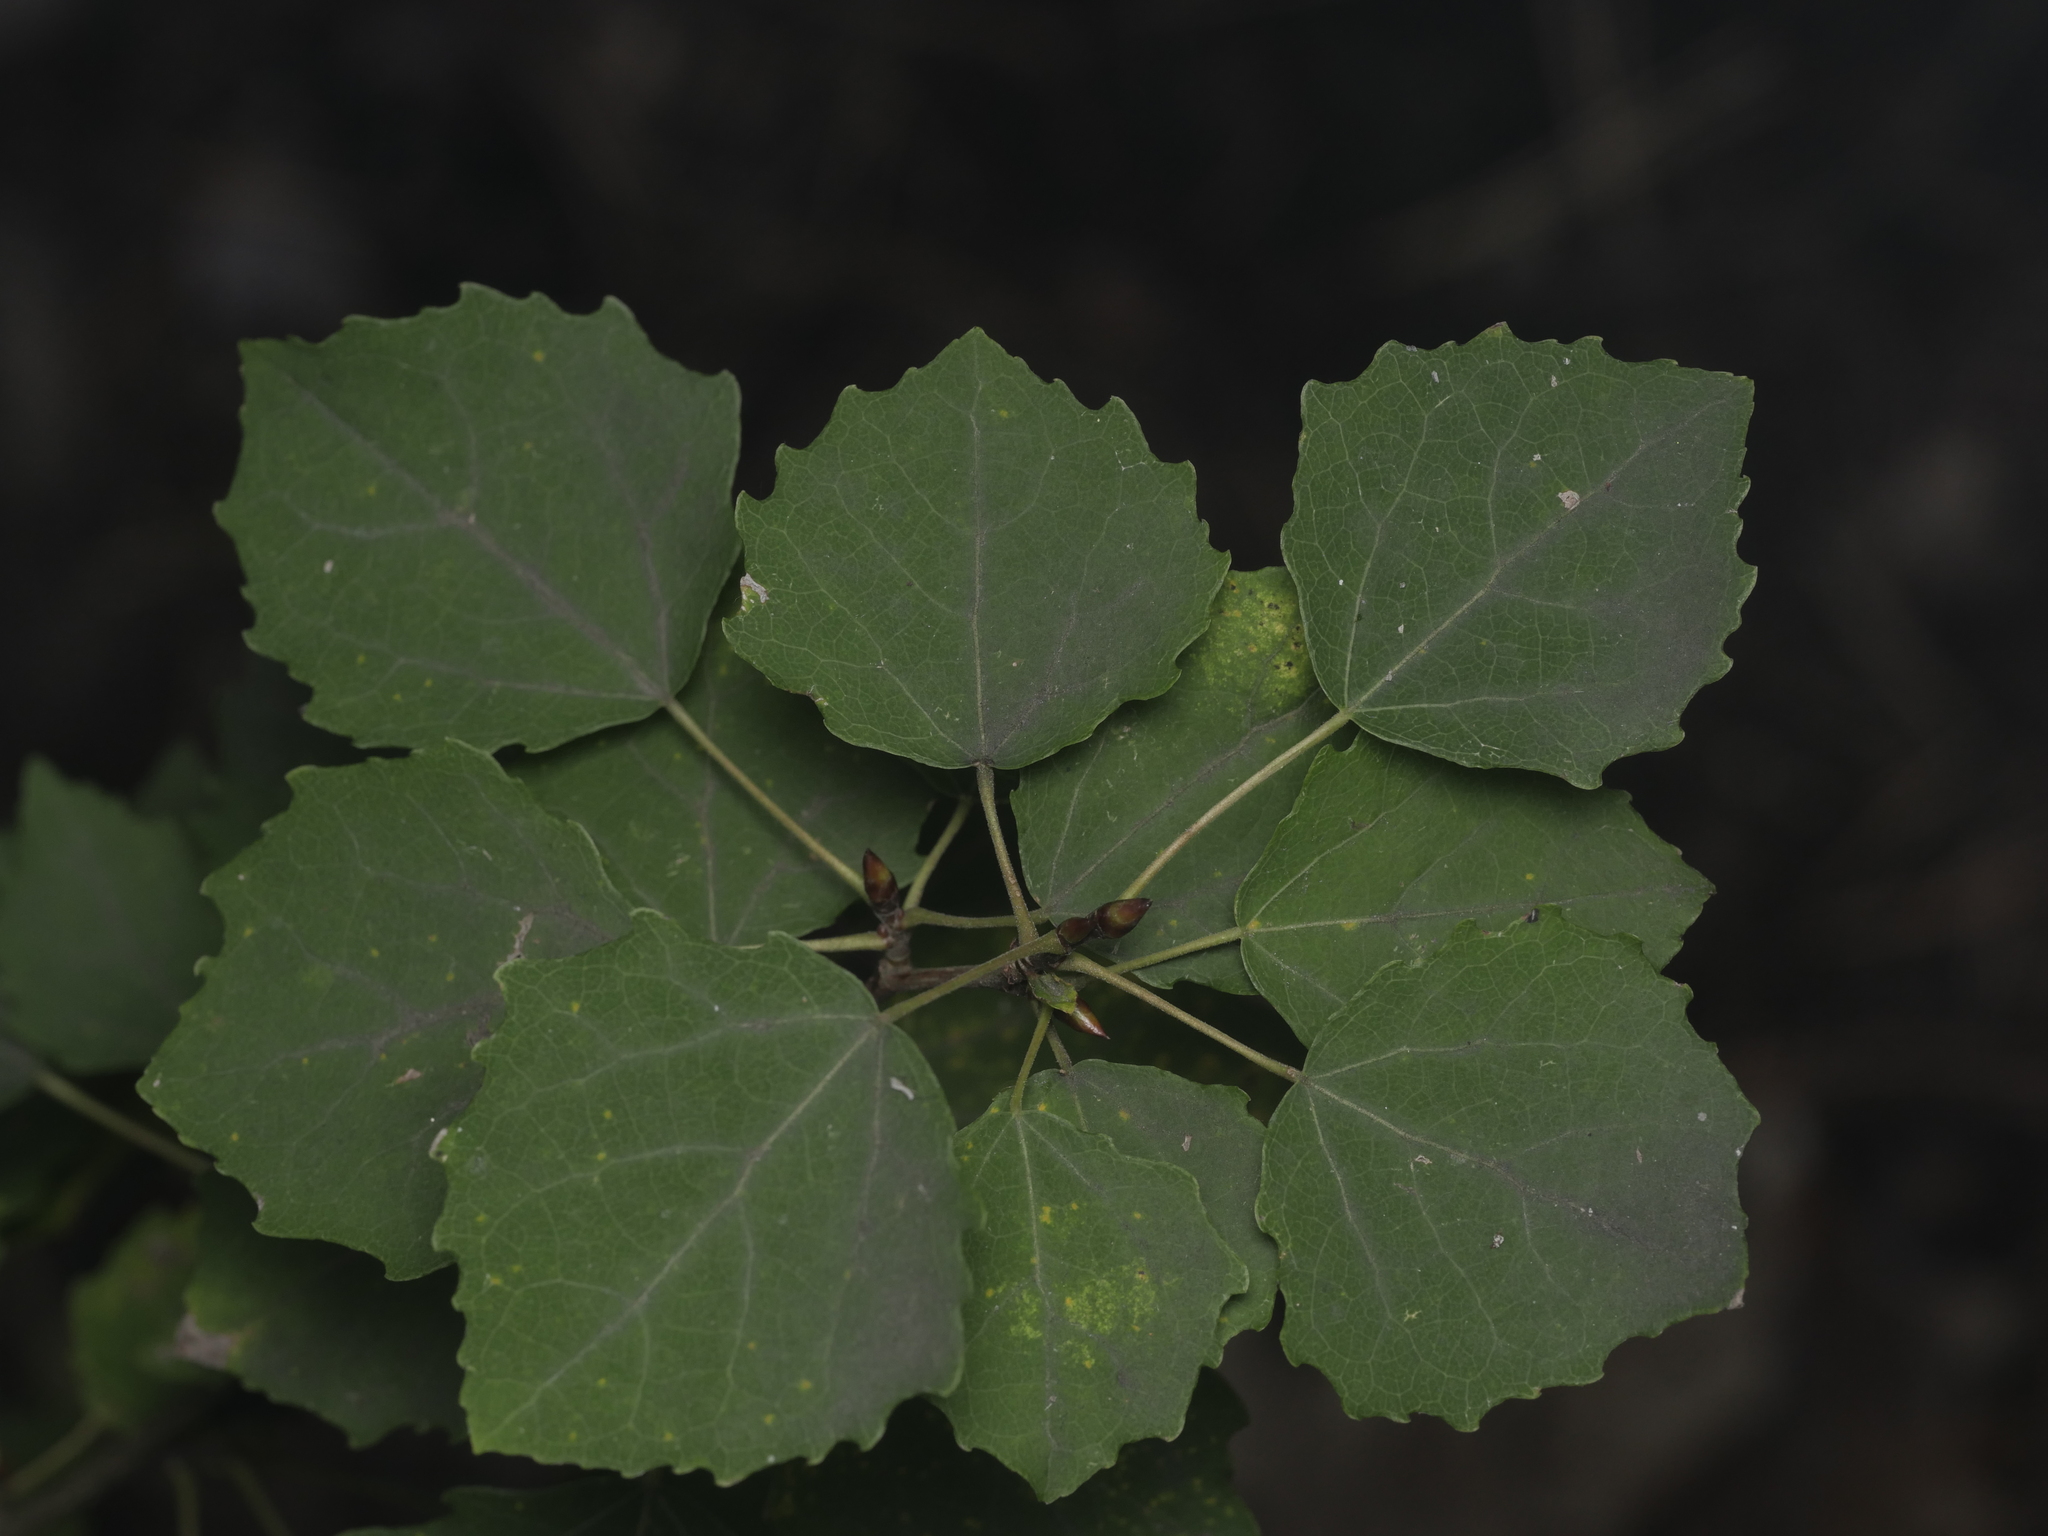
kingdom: Plantae
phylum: Tracheophyta
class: Magnoliopsida
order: Malpighiales
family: Salicaceae
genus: Populus
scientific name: Populus tremula
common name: European aspen
